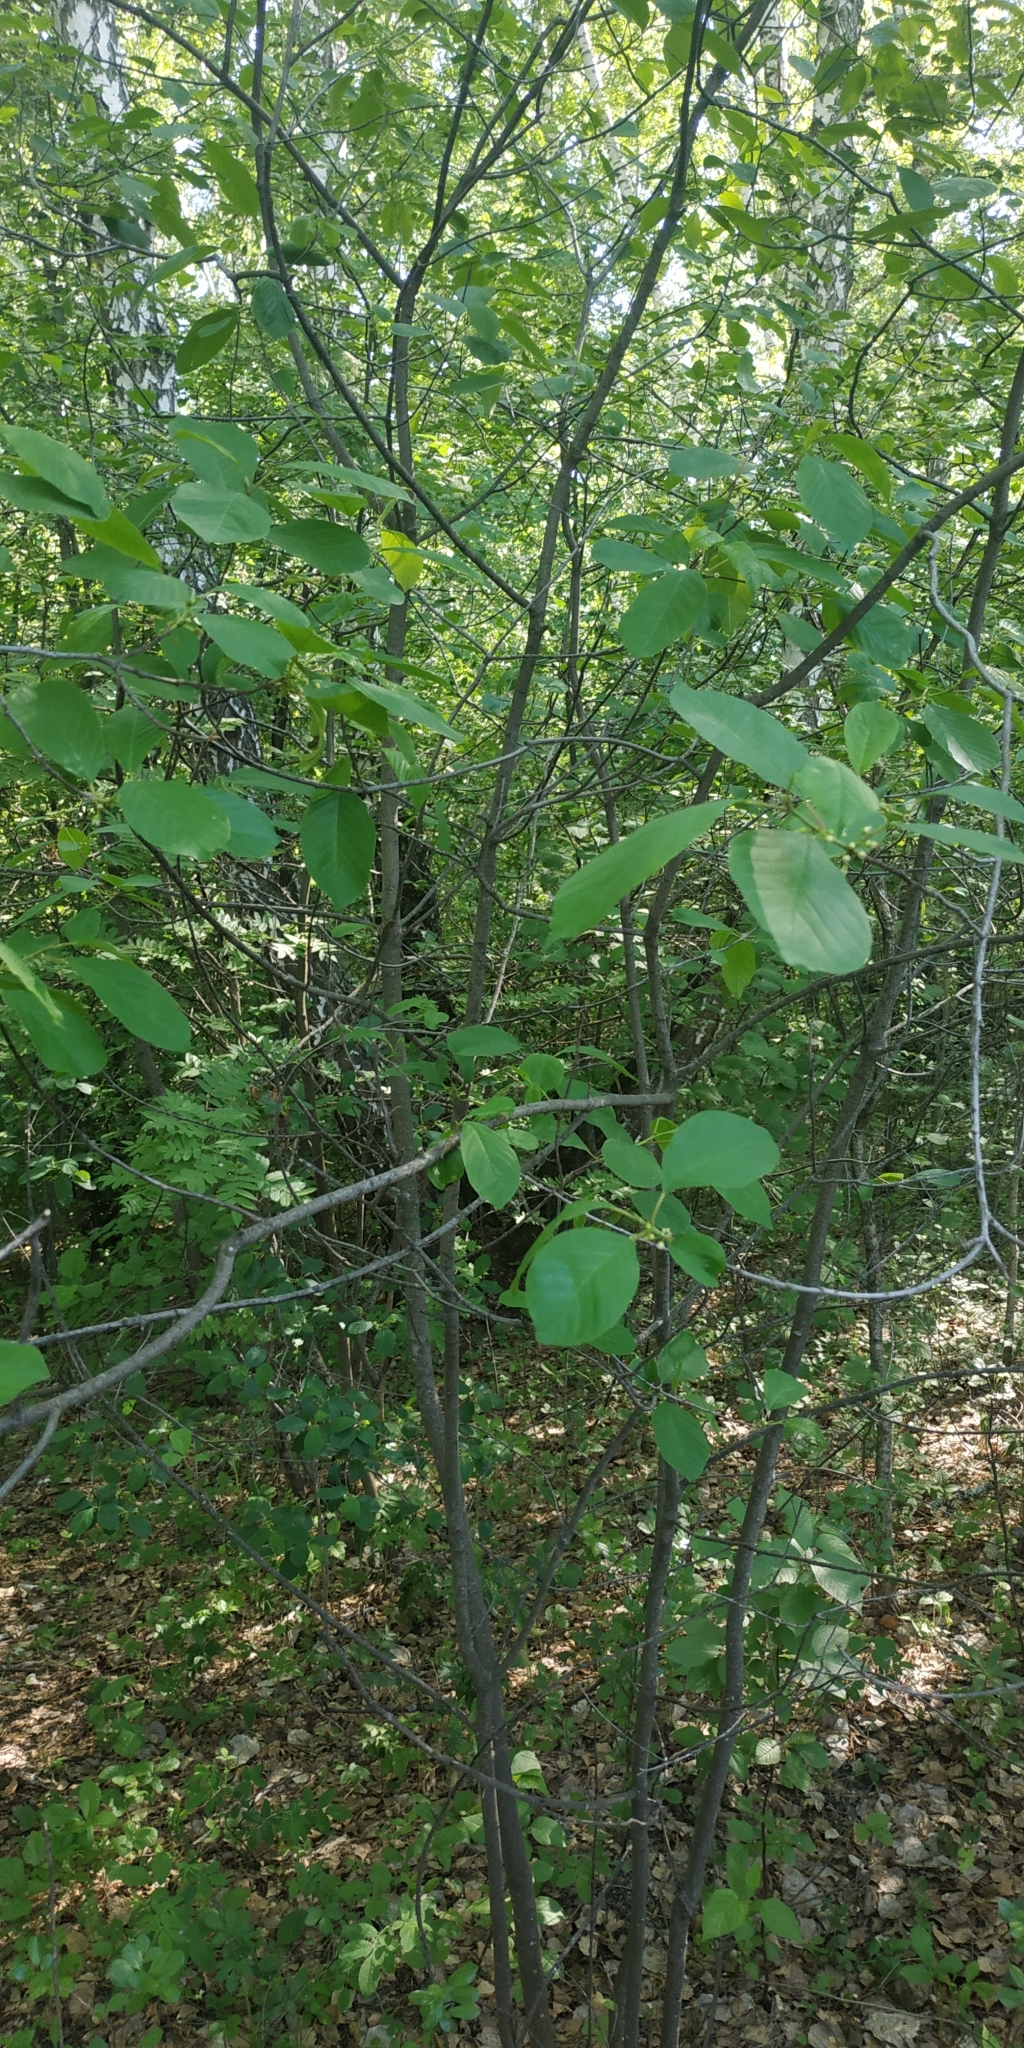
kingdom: Plantae
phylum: Tracheophyta
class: Magnoliopsida
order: Rosales
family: Rhamnaceae
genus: Frangula
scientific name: Frangula alnus
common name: Alder buckthorn
